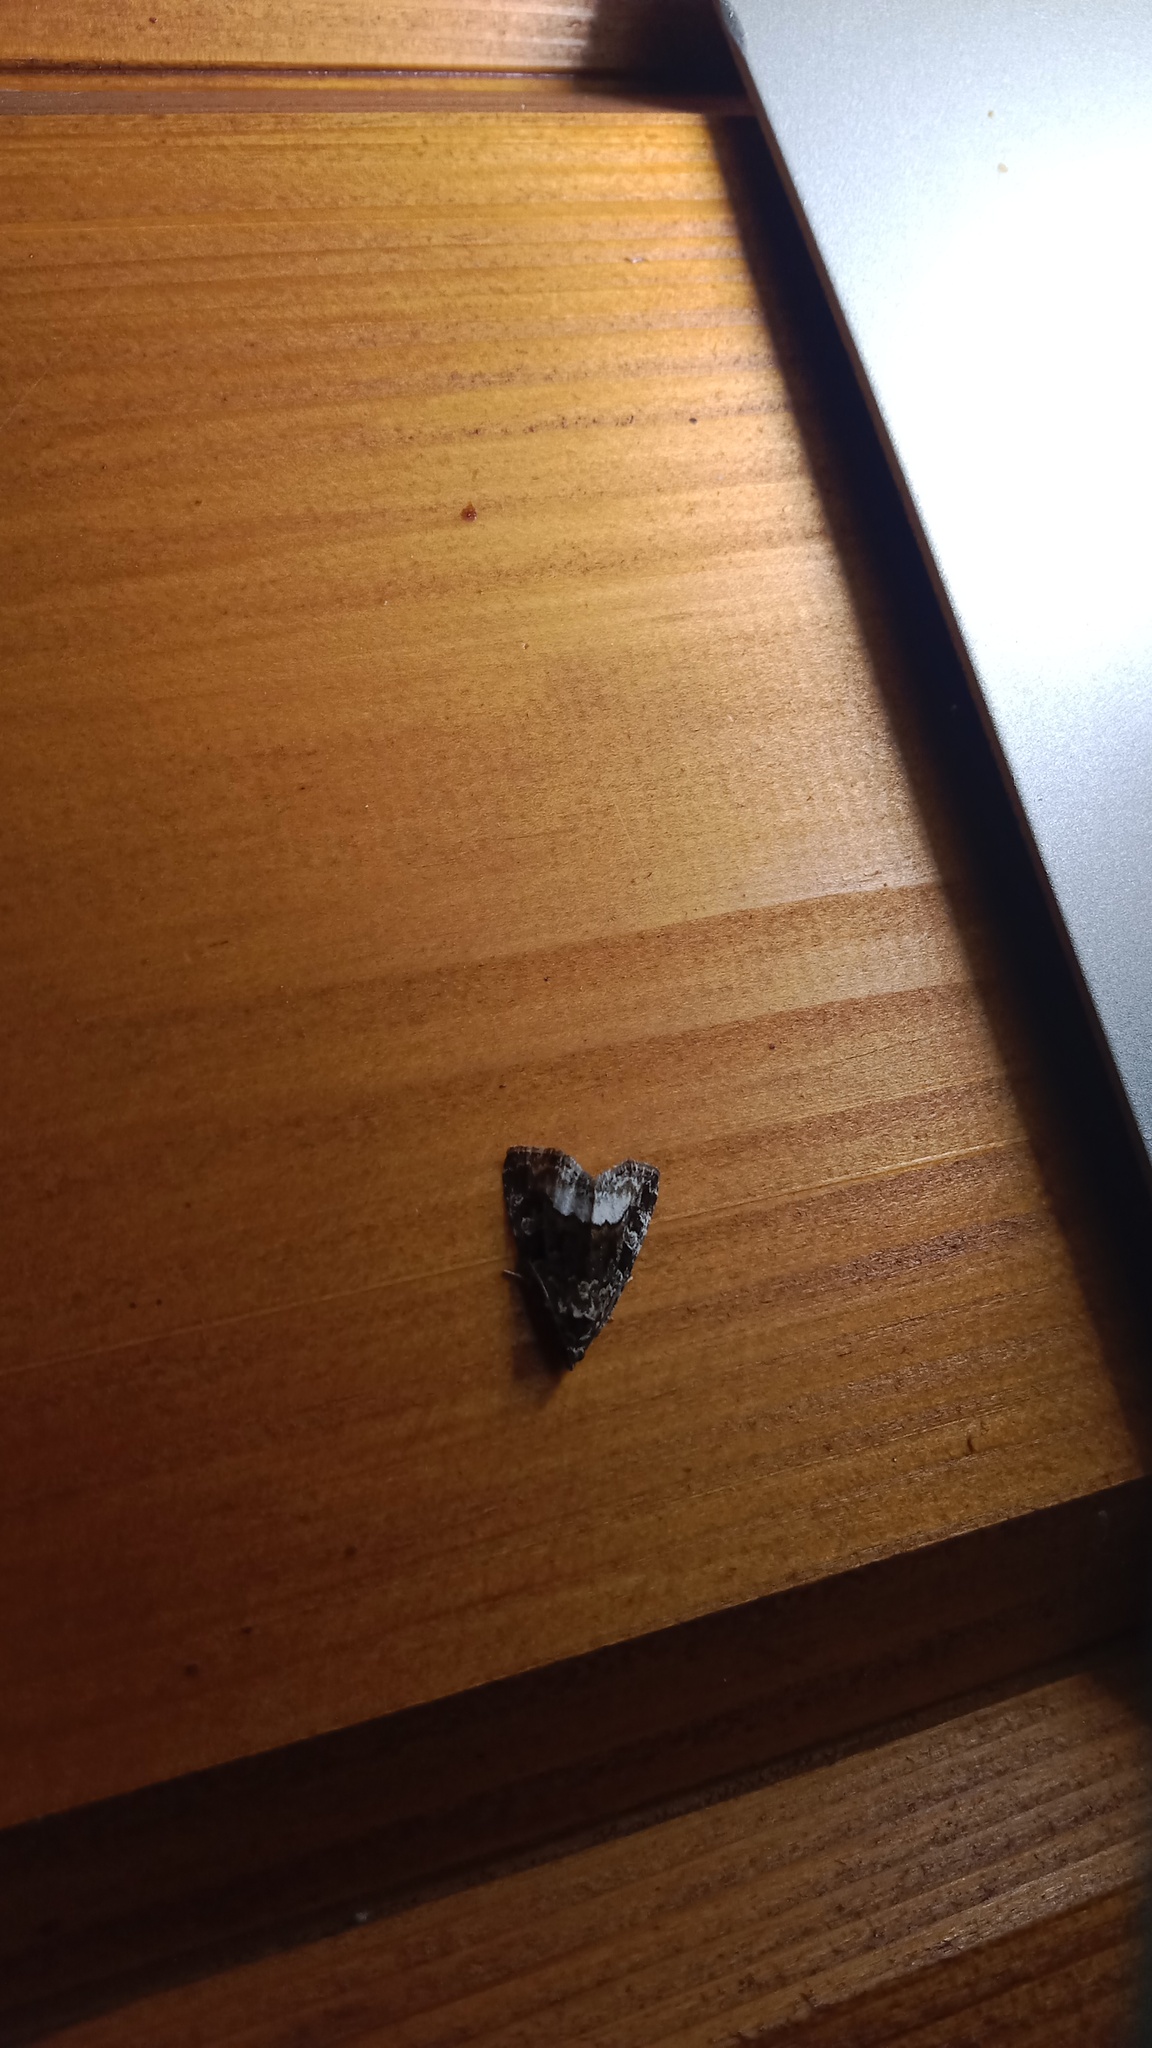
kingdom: Animalia
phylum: Arthropoda
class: Insecta
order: Lepidoptera
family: Noctuidae
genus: Deltote
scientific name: Deltote pygarga
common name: Marbled white spot
